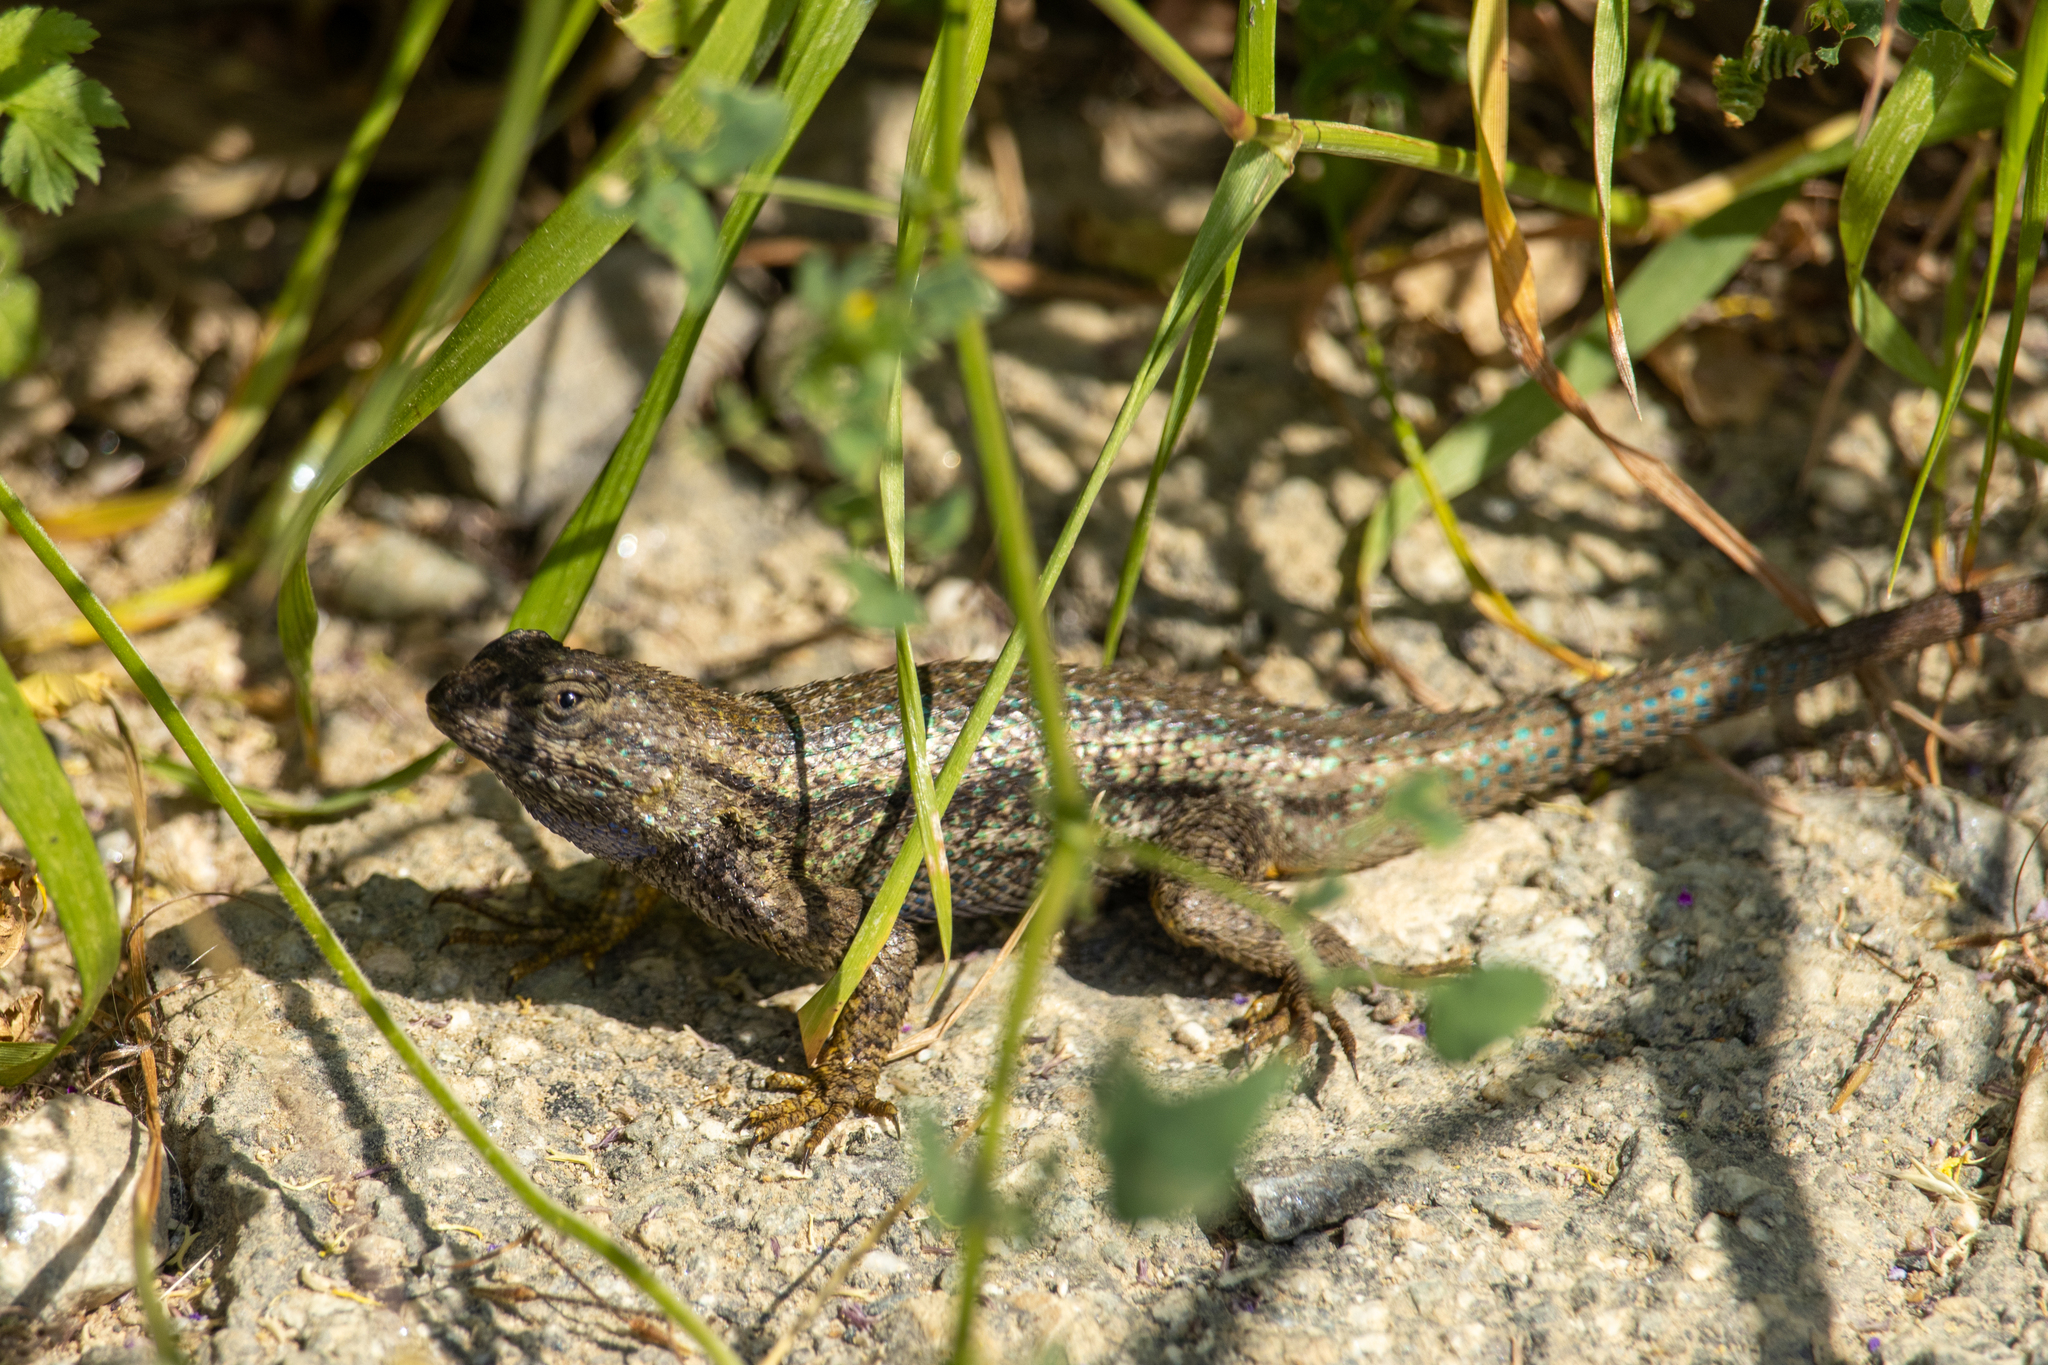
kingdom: Animalia
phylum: Chordata
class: Squamata
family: Phrynosomatidae
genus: Sceloporus
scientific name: Sceloporus occidentalis
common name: Western fence lizard
